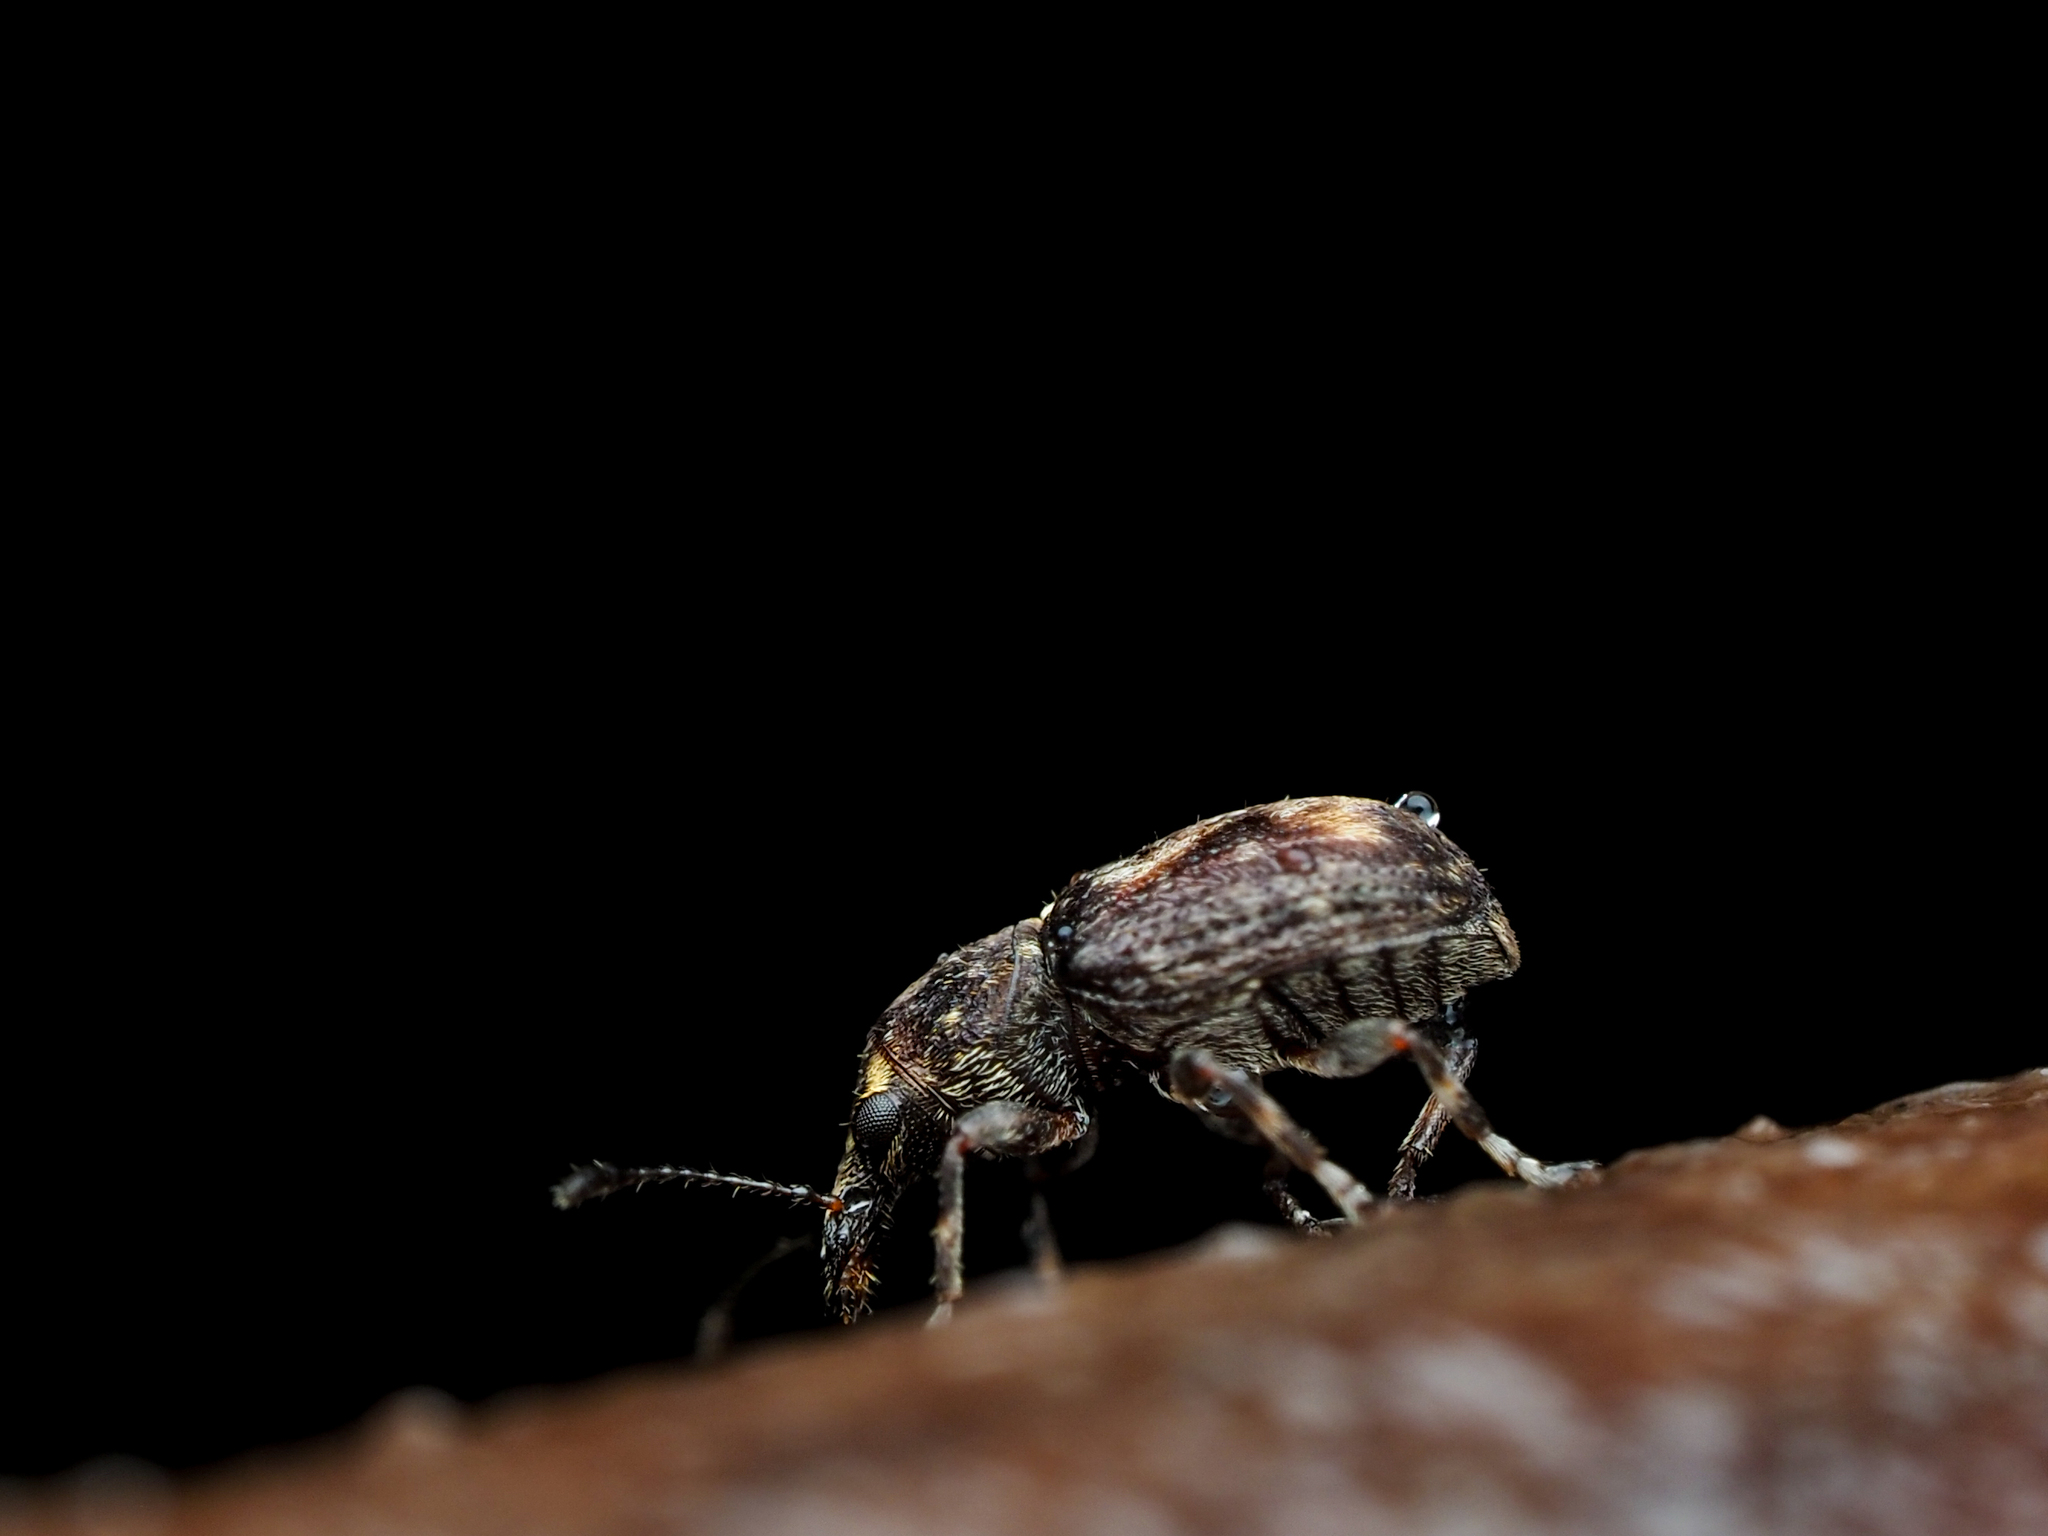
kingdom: Animalia
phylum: Arthropoda
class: Insecta
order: Coleoptera
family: Anthribidae
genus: Sharpius
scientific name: Sharpius
